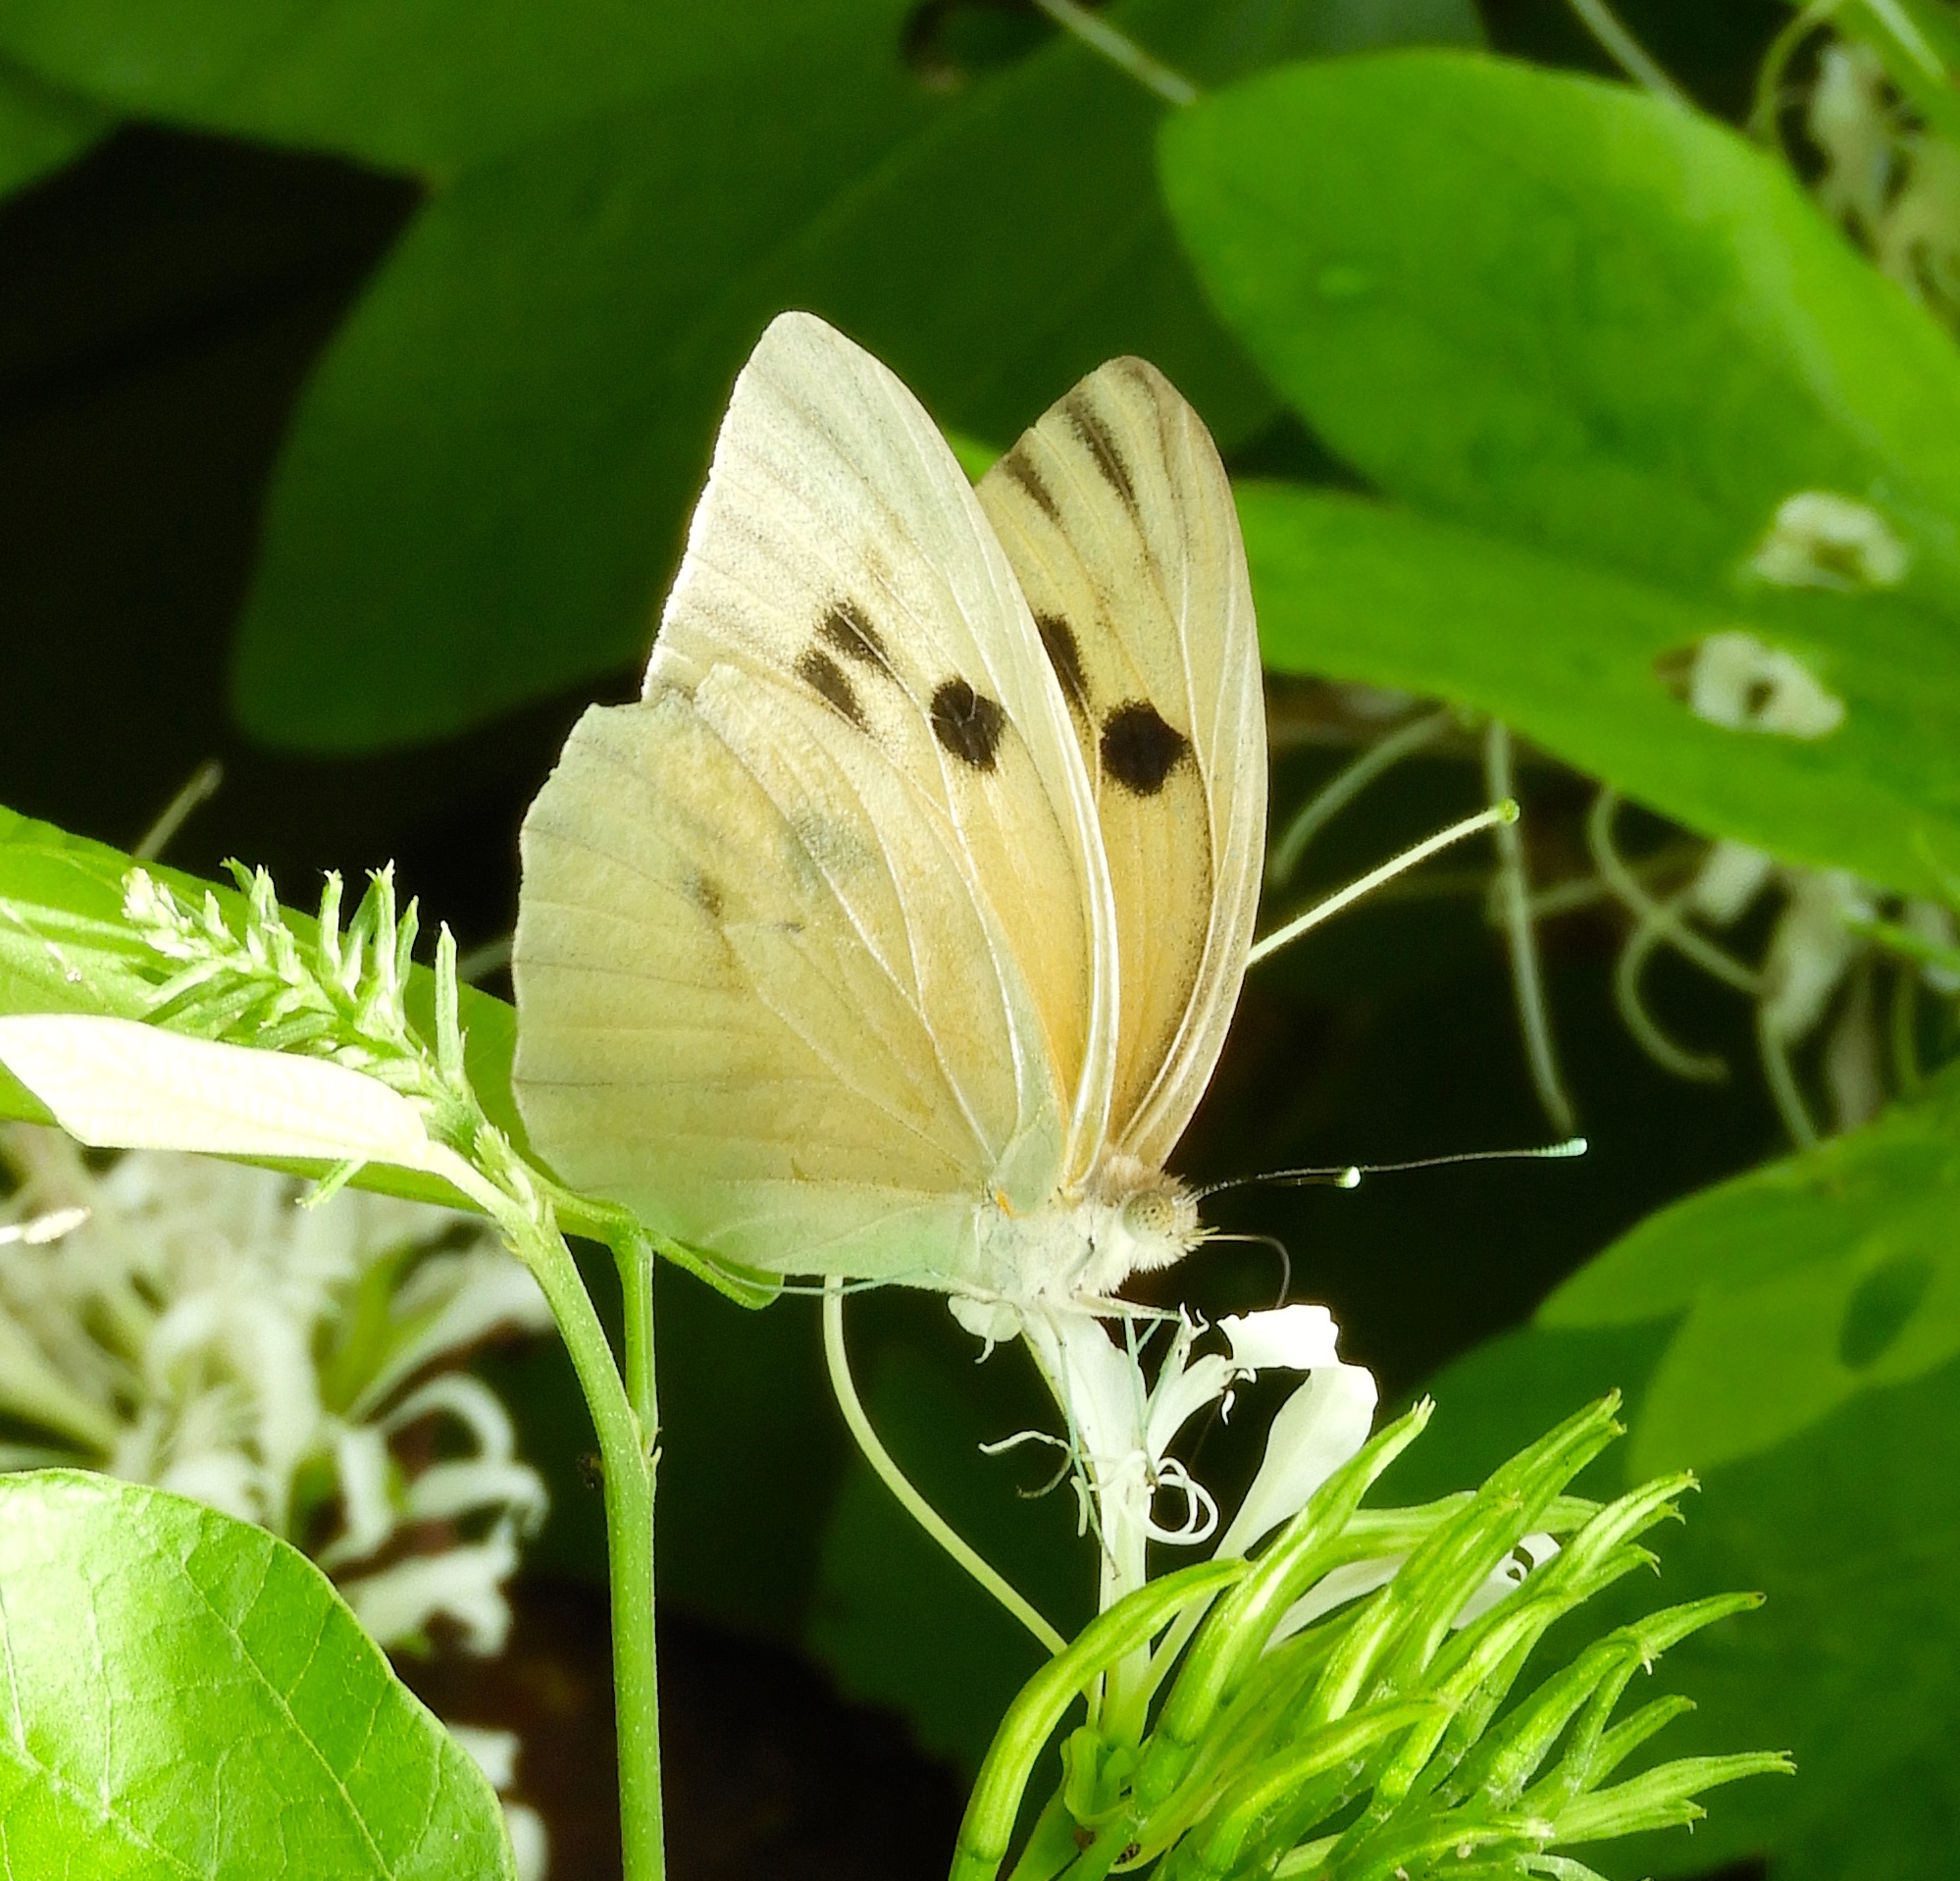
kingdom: Animalia
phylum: Arthropoda
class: Insecta
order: Lepidoptera
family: Pieridae
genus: Ganyra
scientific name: Ganyra josephina
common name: Giant white
